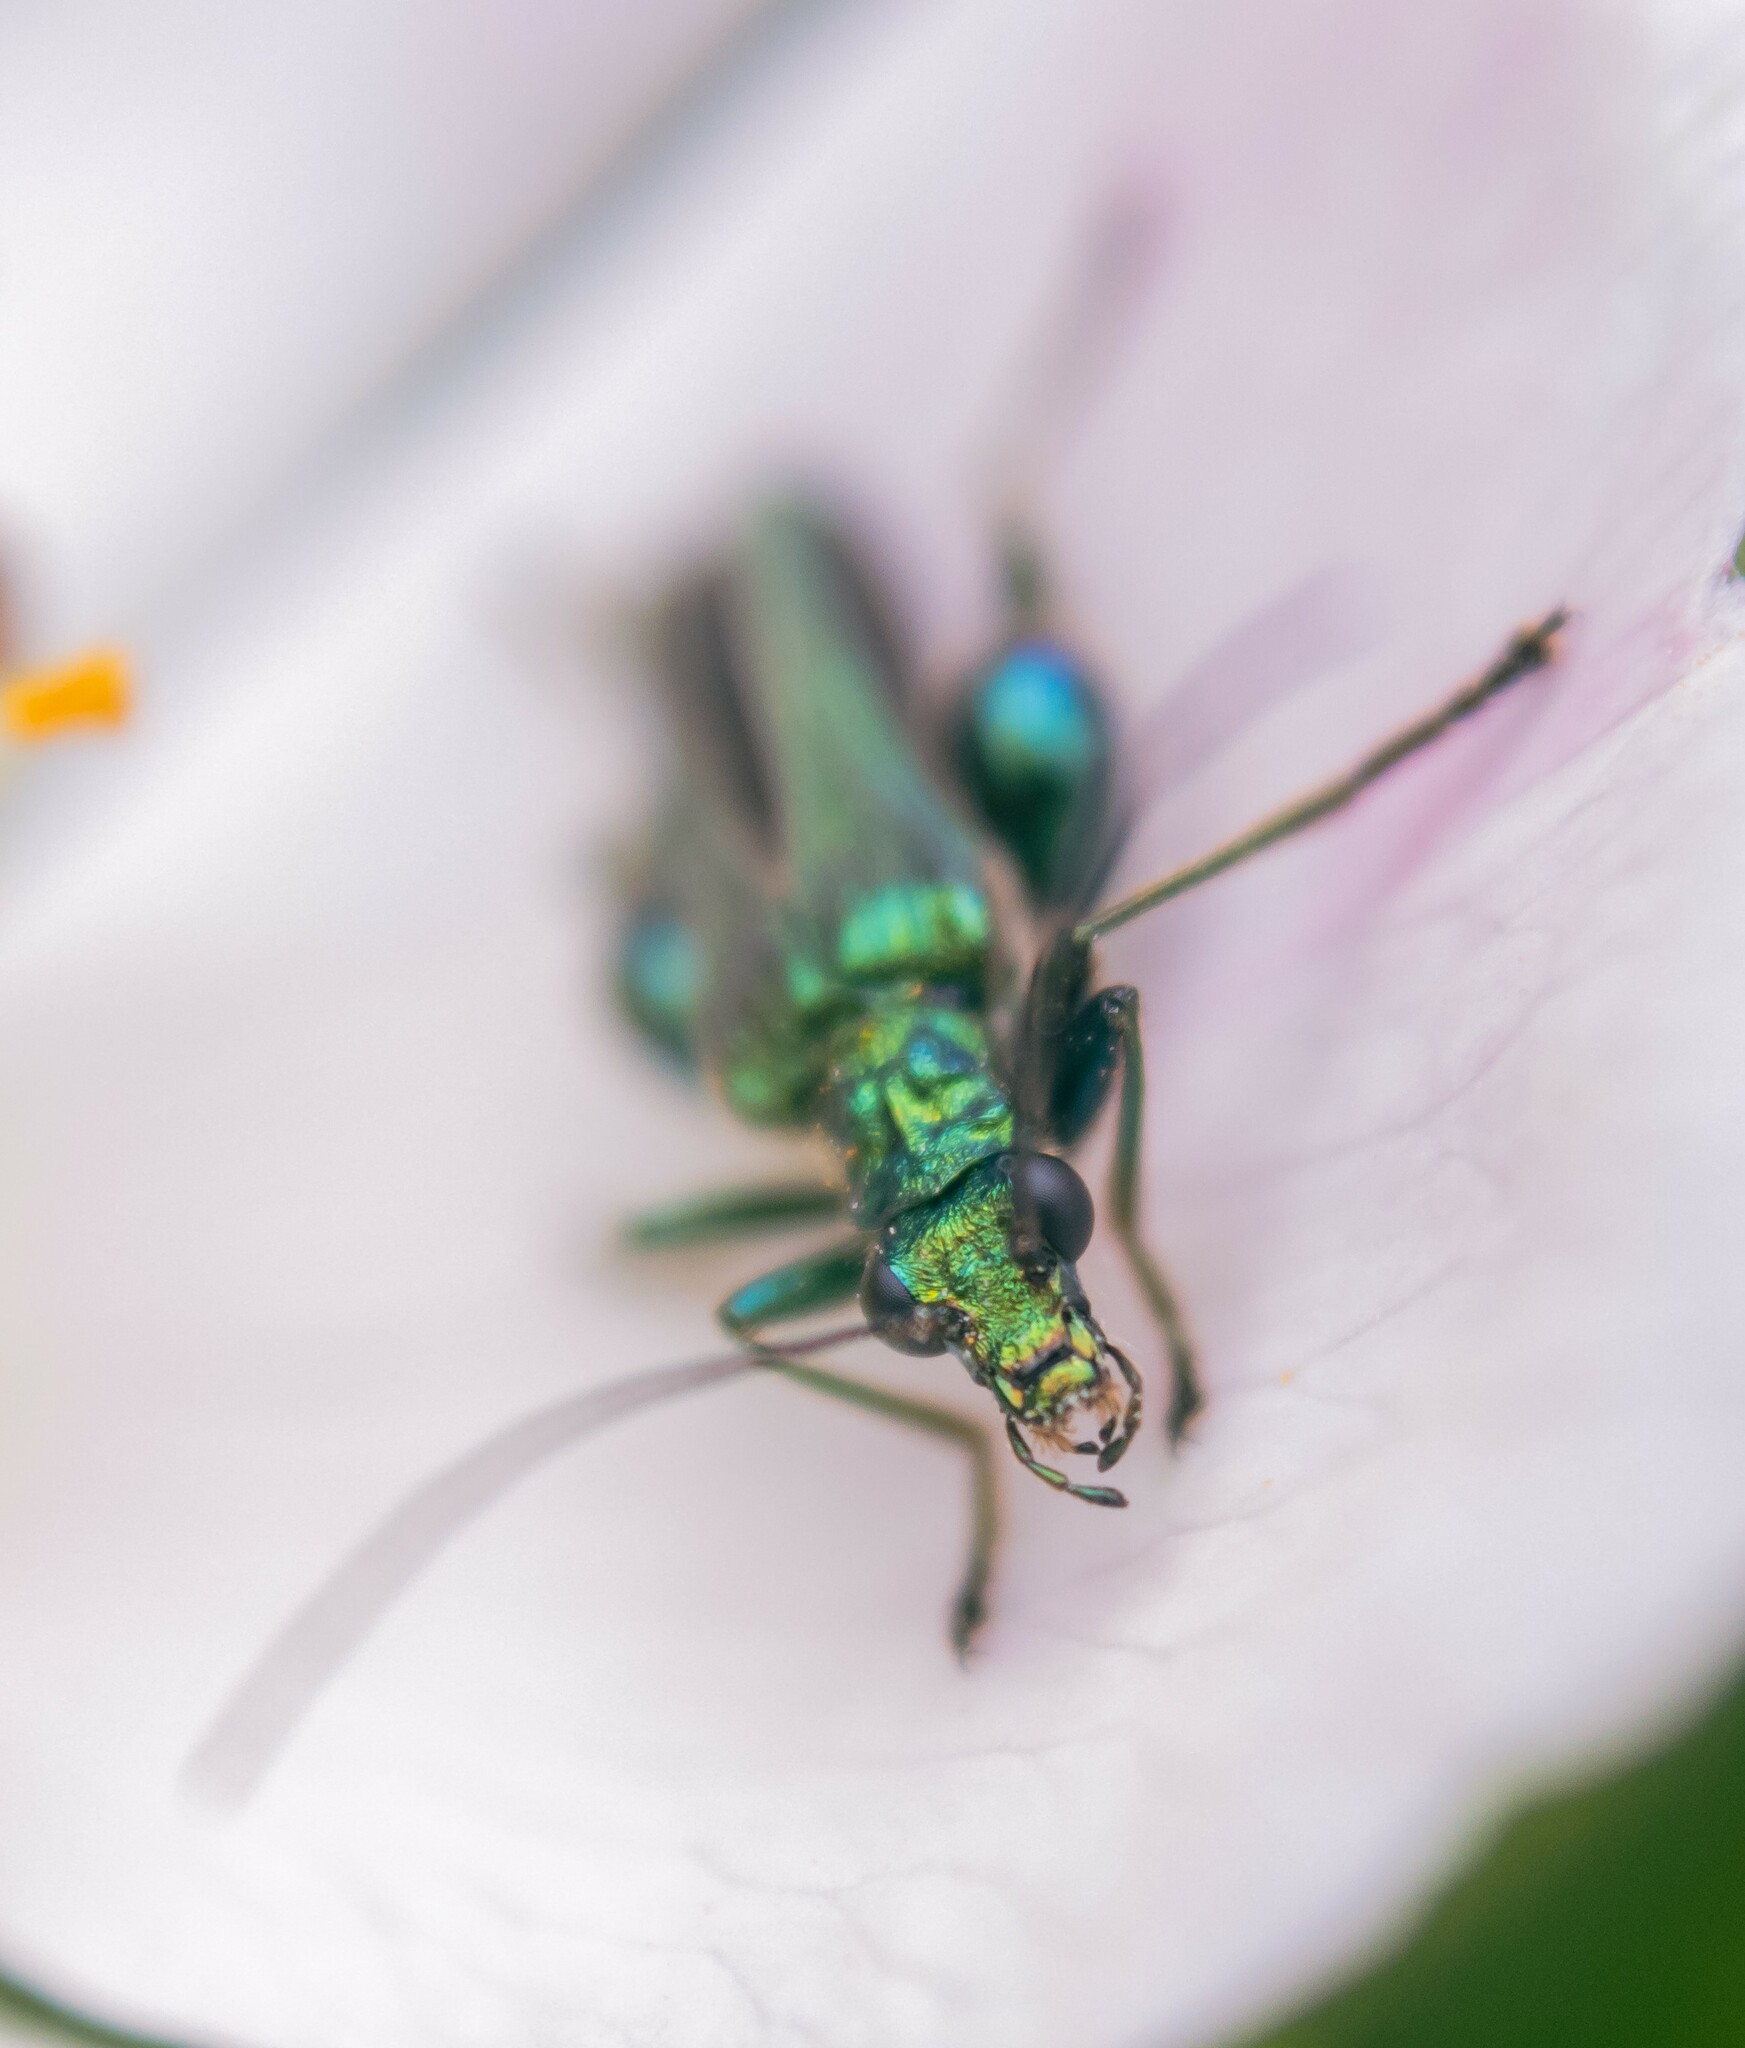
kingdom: Animalia
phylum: Arthropoda
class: Insecta
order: Coleoptera
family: Oedemeridae
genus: Oedemera
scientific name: Oedemera nobilis
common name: Swollen-thighed beetle
